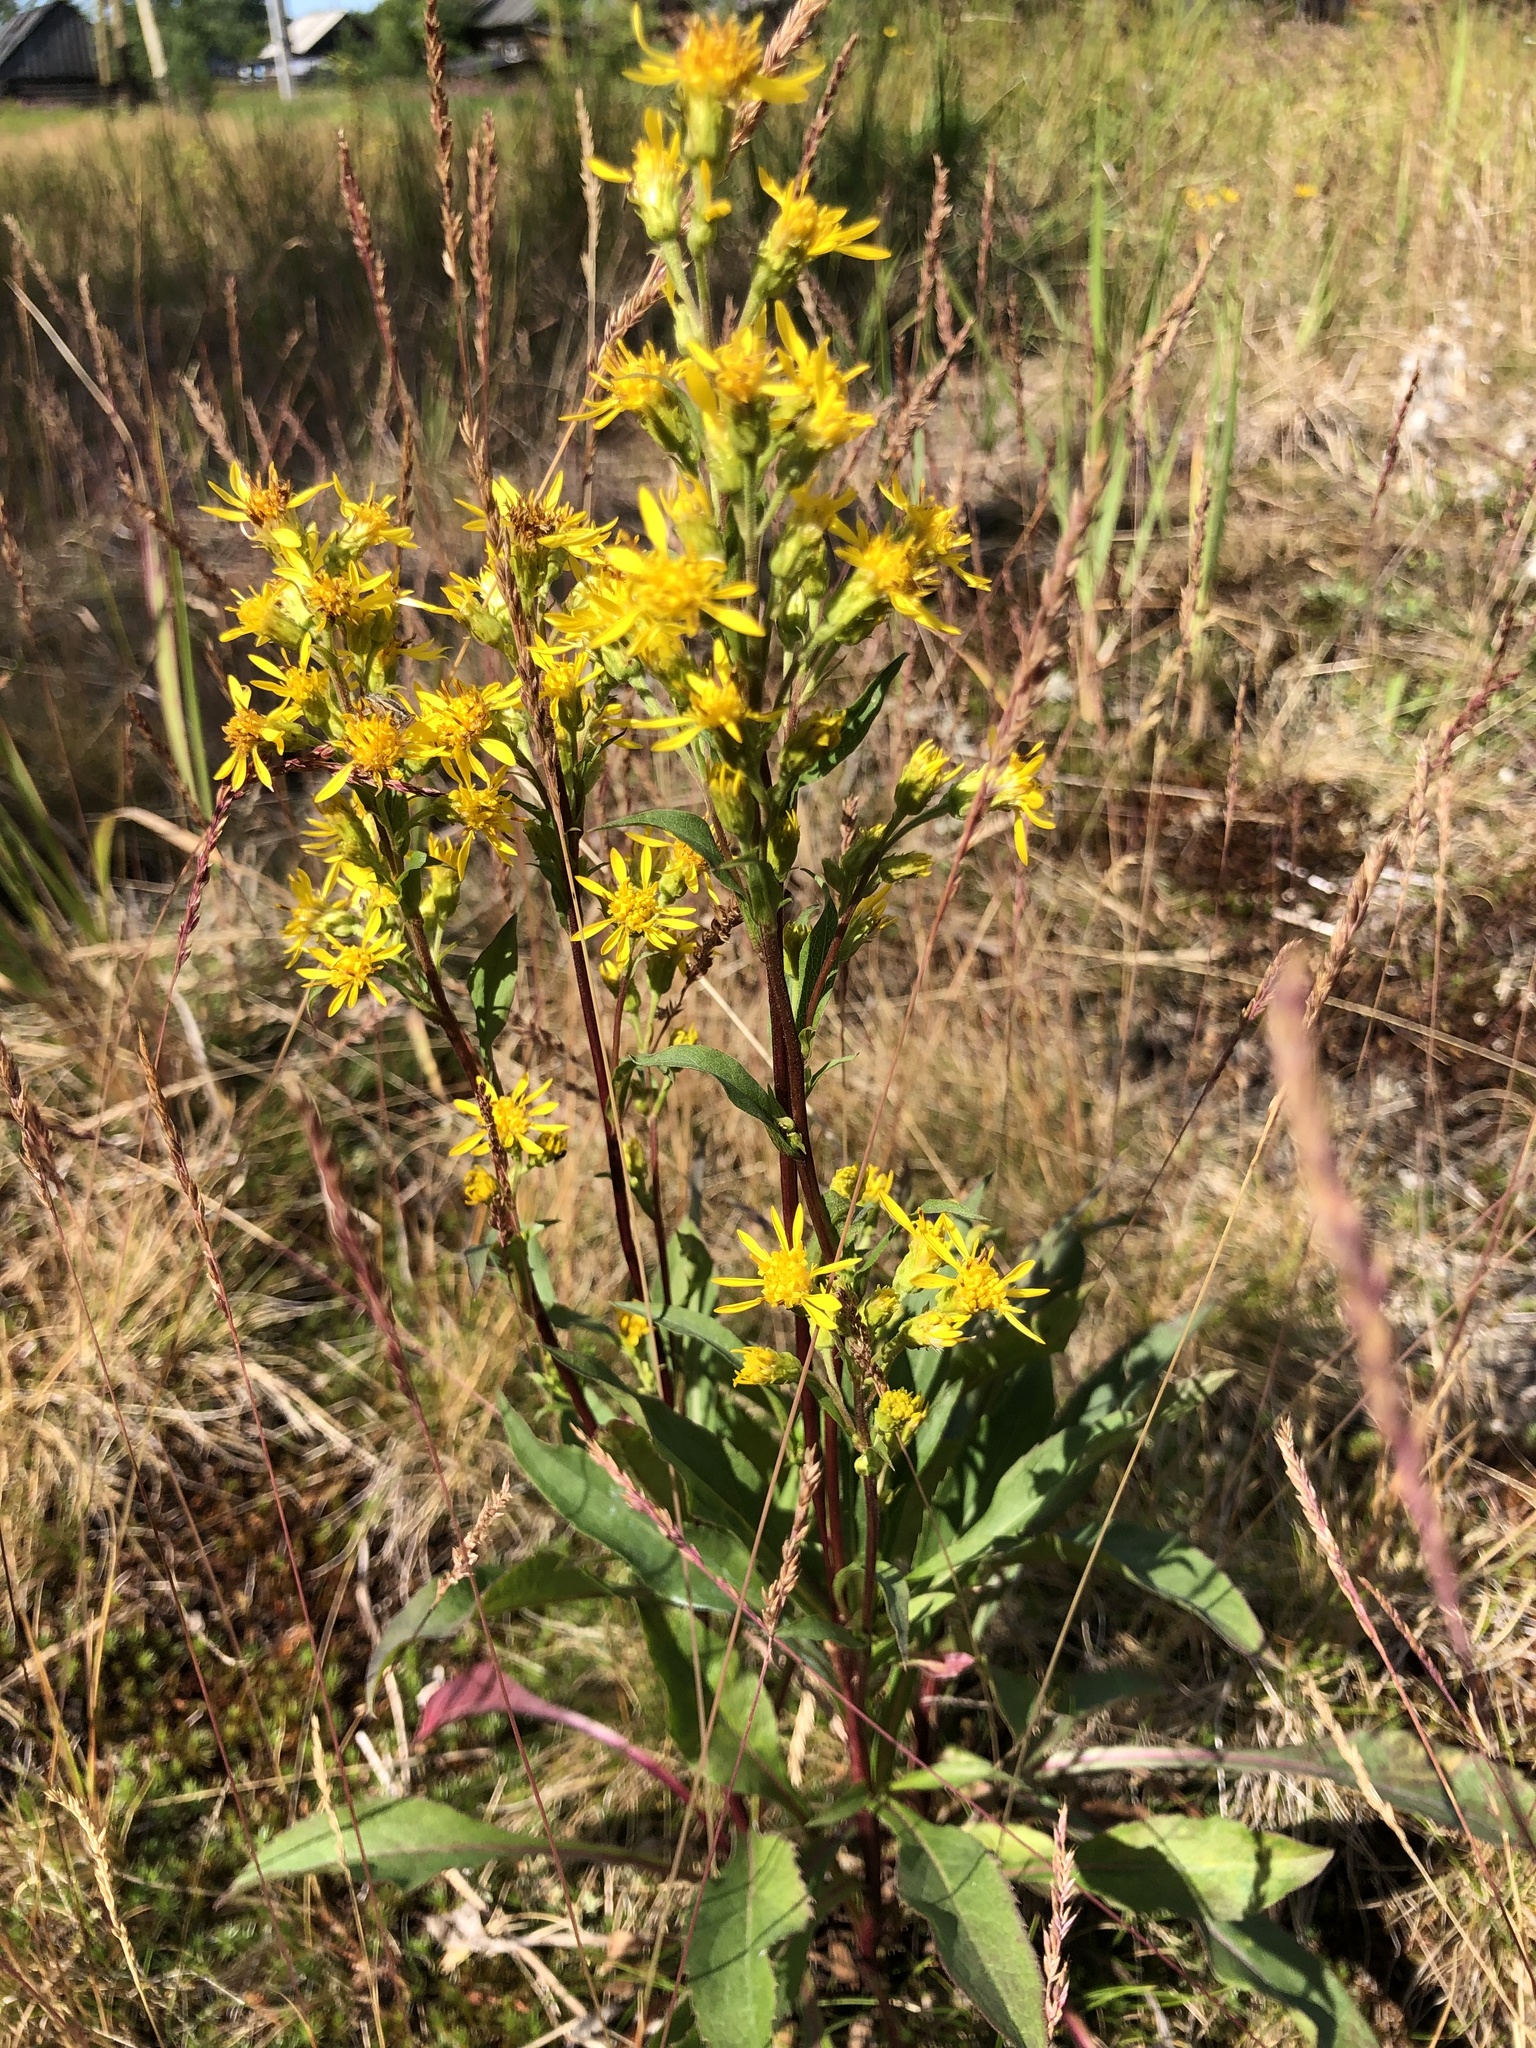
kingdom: Plantae
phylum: Tracheophyta
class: Magnoliopsida
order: Asterales
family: Asteraceae
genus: Solidago
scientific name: Solidago virgaurea
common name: Goldenrod
